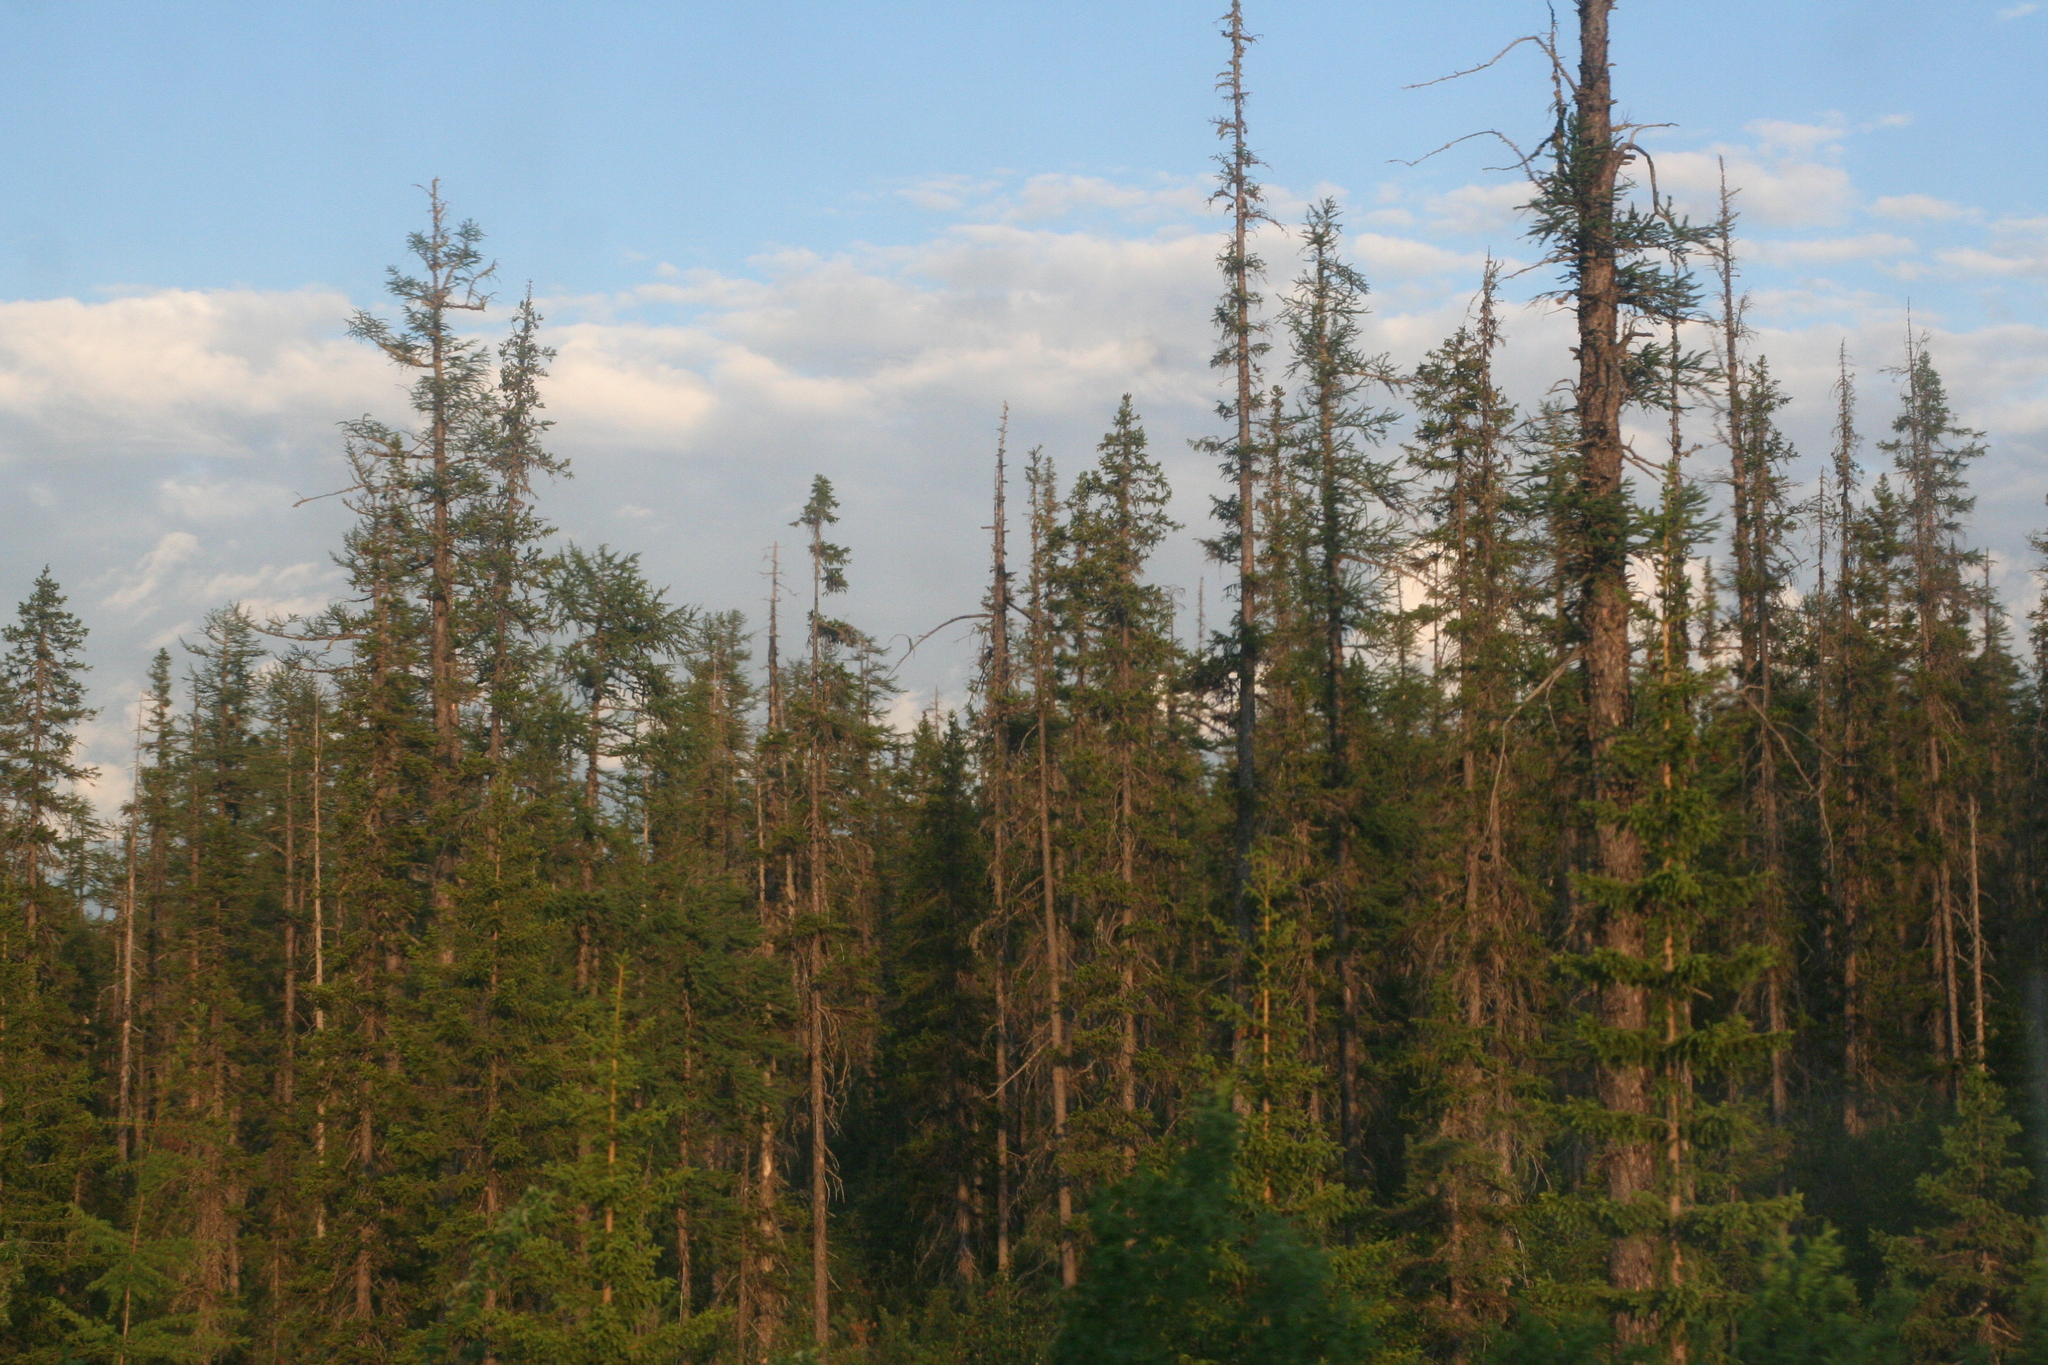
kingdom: Plantae
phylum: Tracheophyta
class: Pinopsida
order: Pinales
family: Pinaceae
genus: Picea
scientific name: Picea obovata
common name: Siberian spruce
